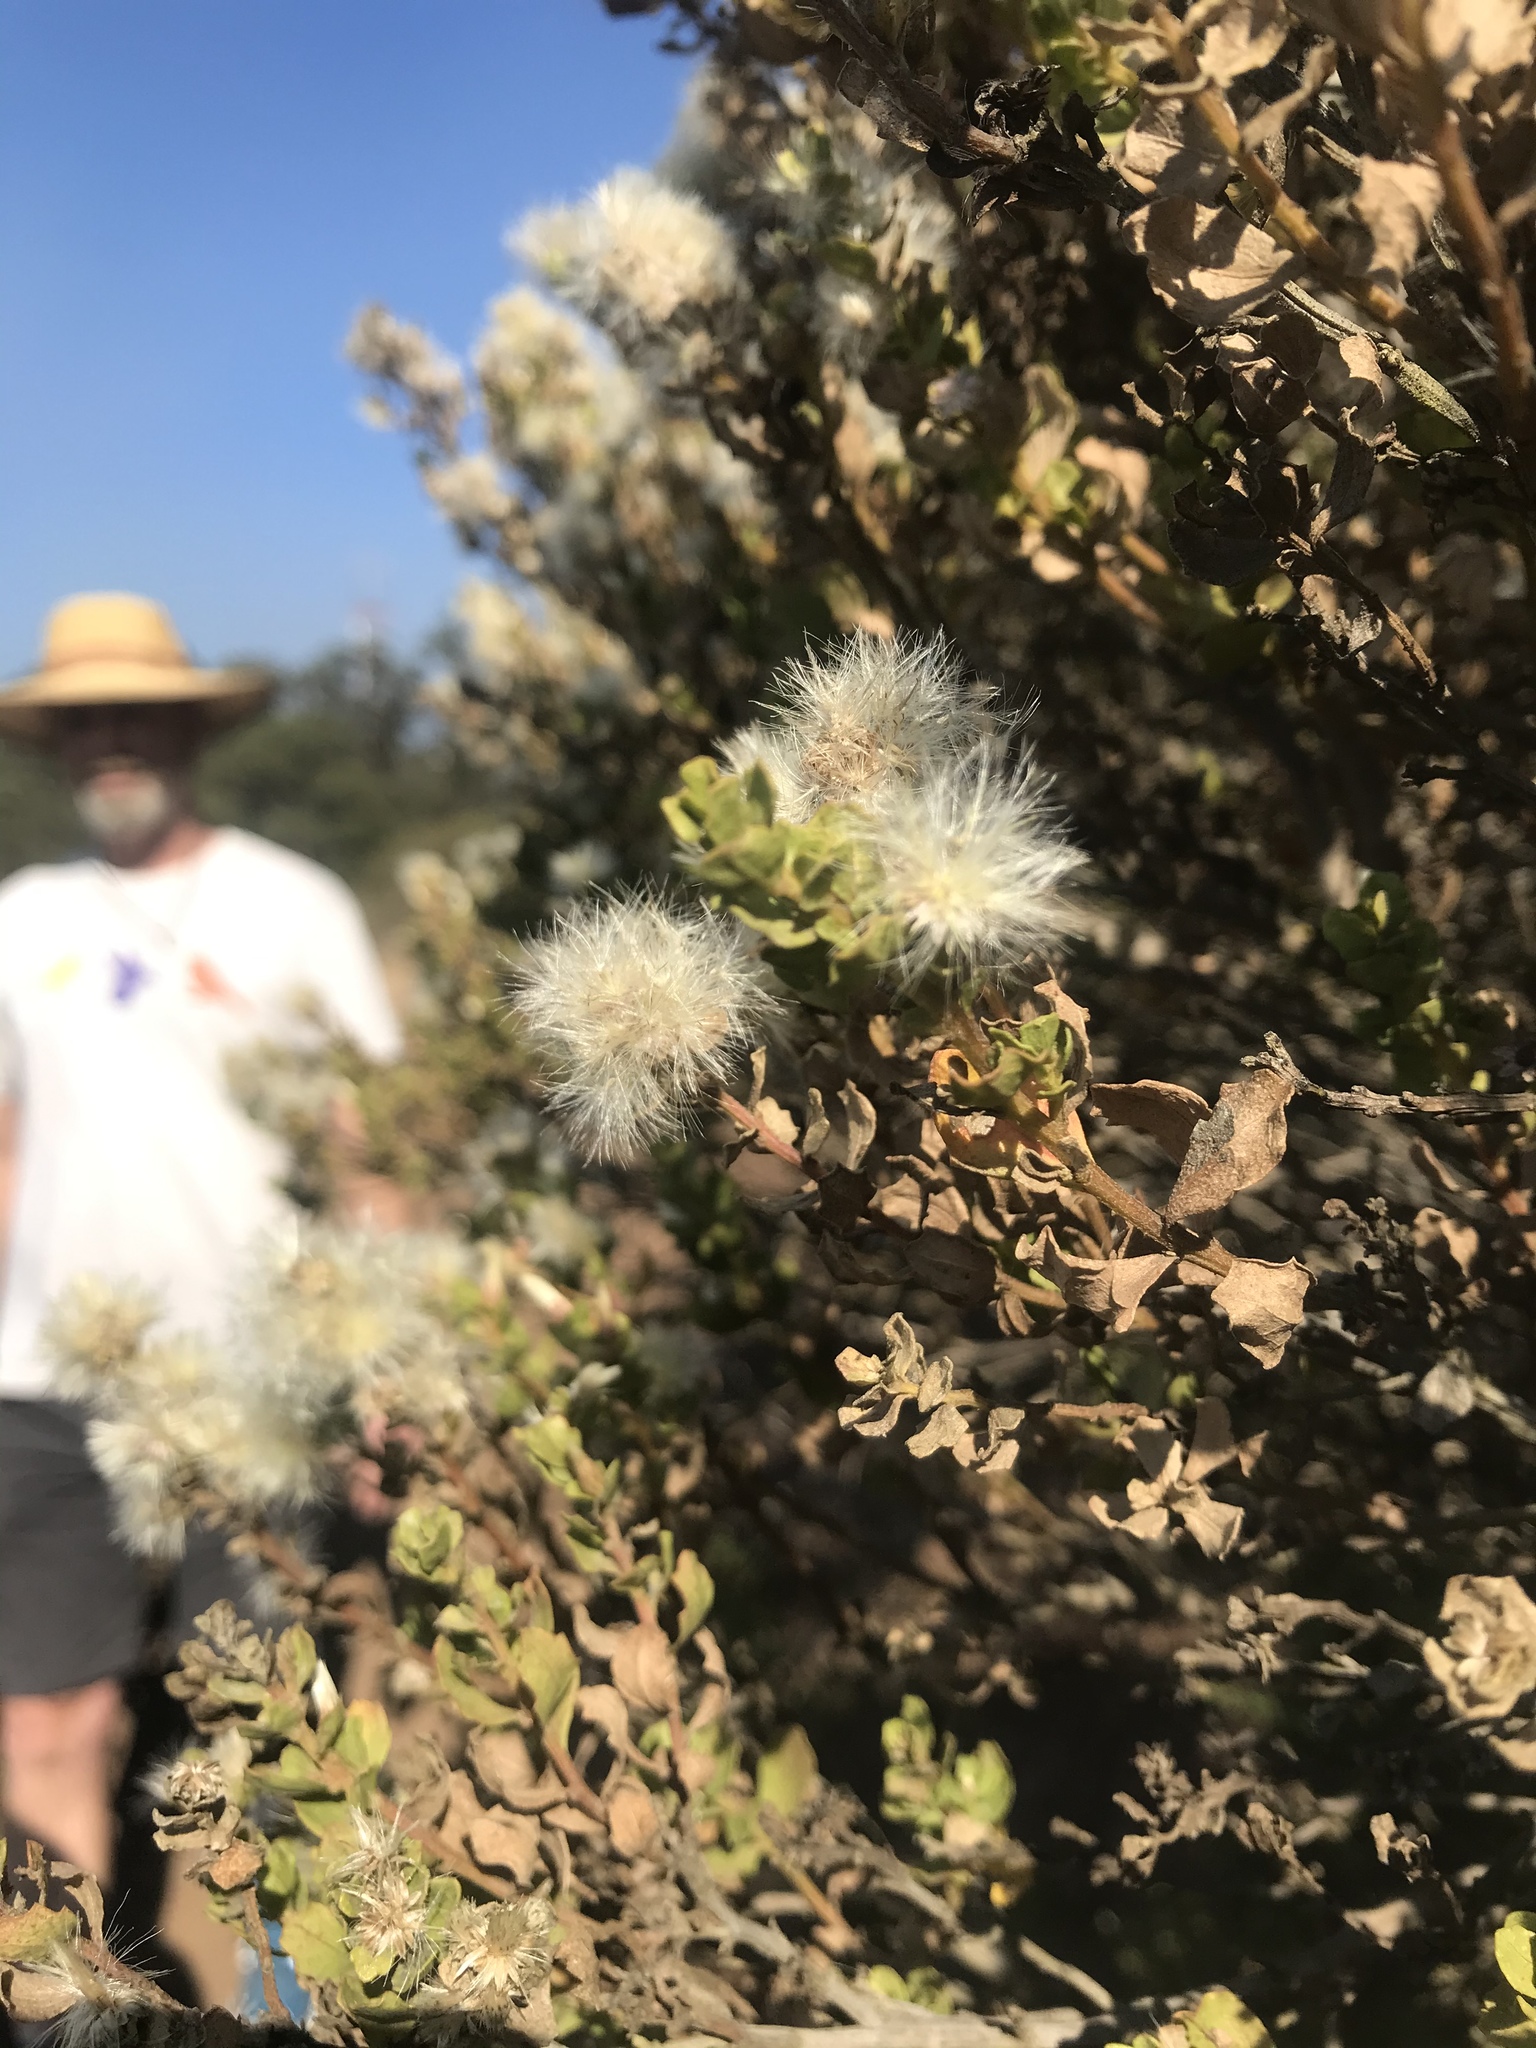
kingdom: Plantae
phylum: Tracheophyta
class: Magnoliopsida
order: Asterales
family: Asteraceae
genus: Baccharis
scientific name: Baccharis pilularis
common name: Coyotebrush
